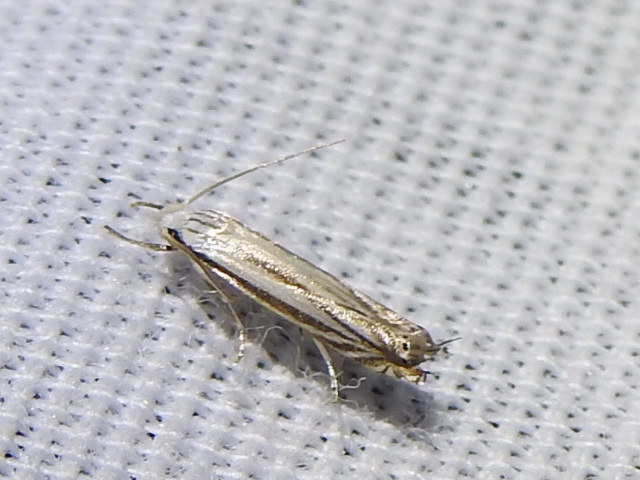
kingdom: Animalia
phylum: Arthropoda
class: Insecta
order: Lepidoptera
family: Gelechiidae
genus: Polyhymno
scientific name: Polyhymno luteostrigella
